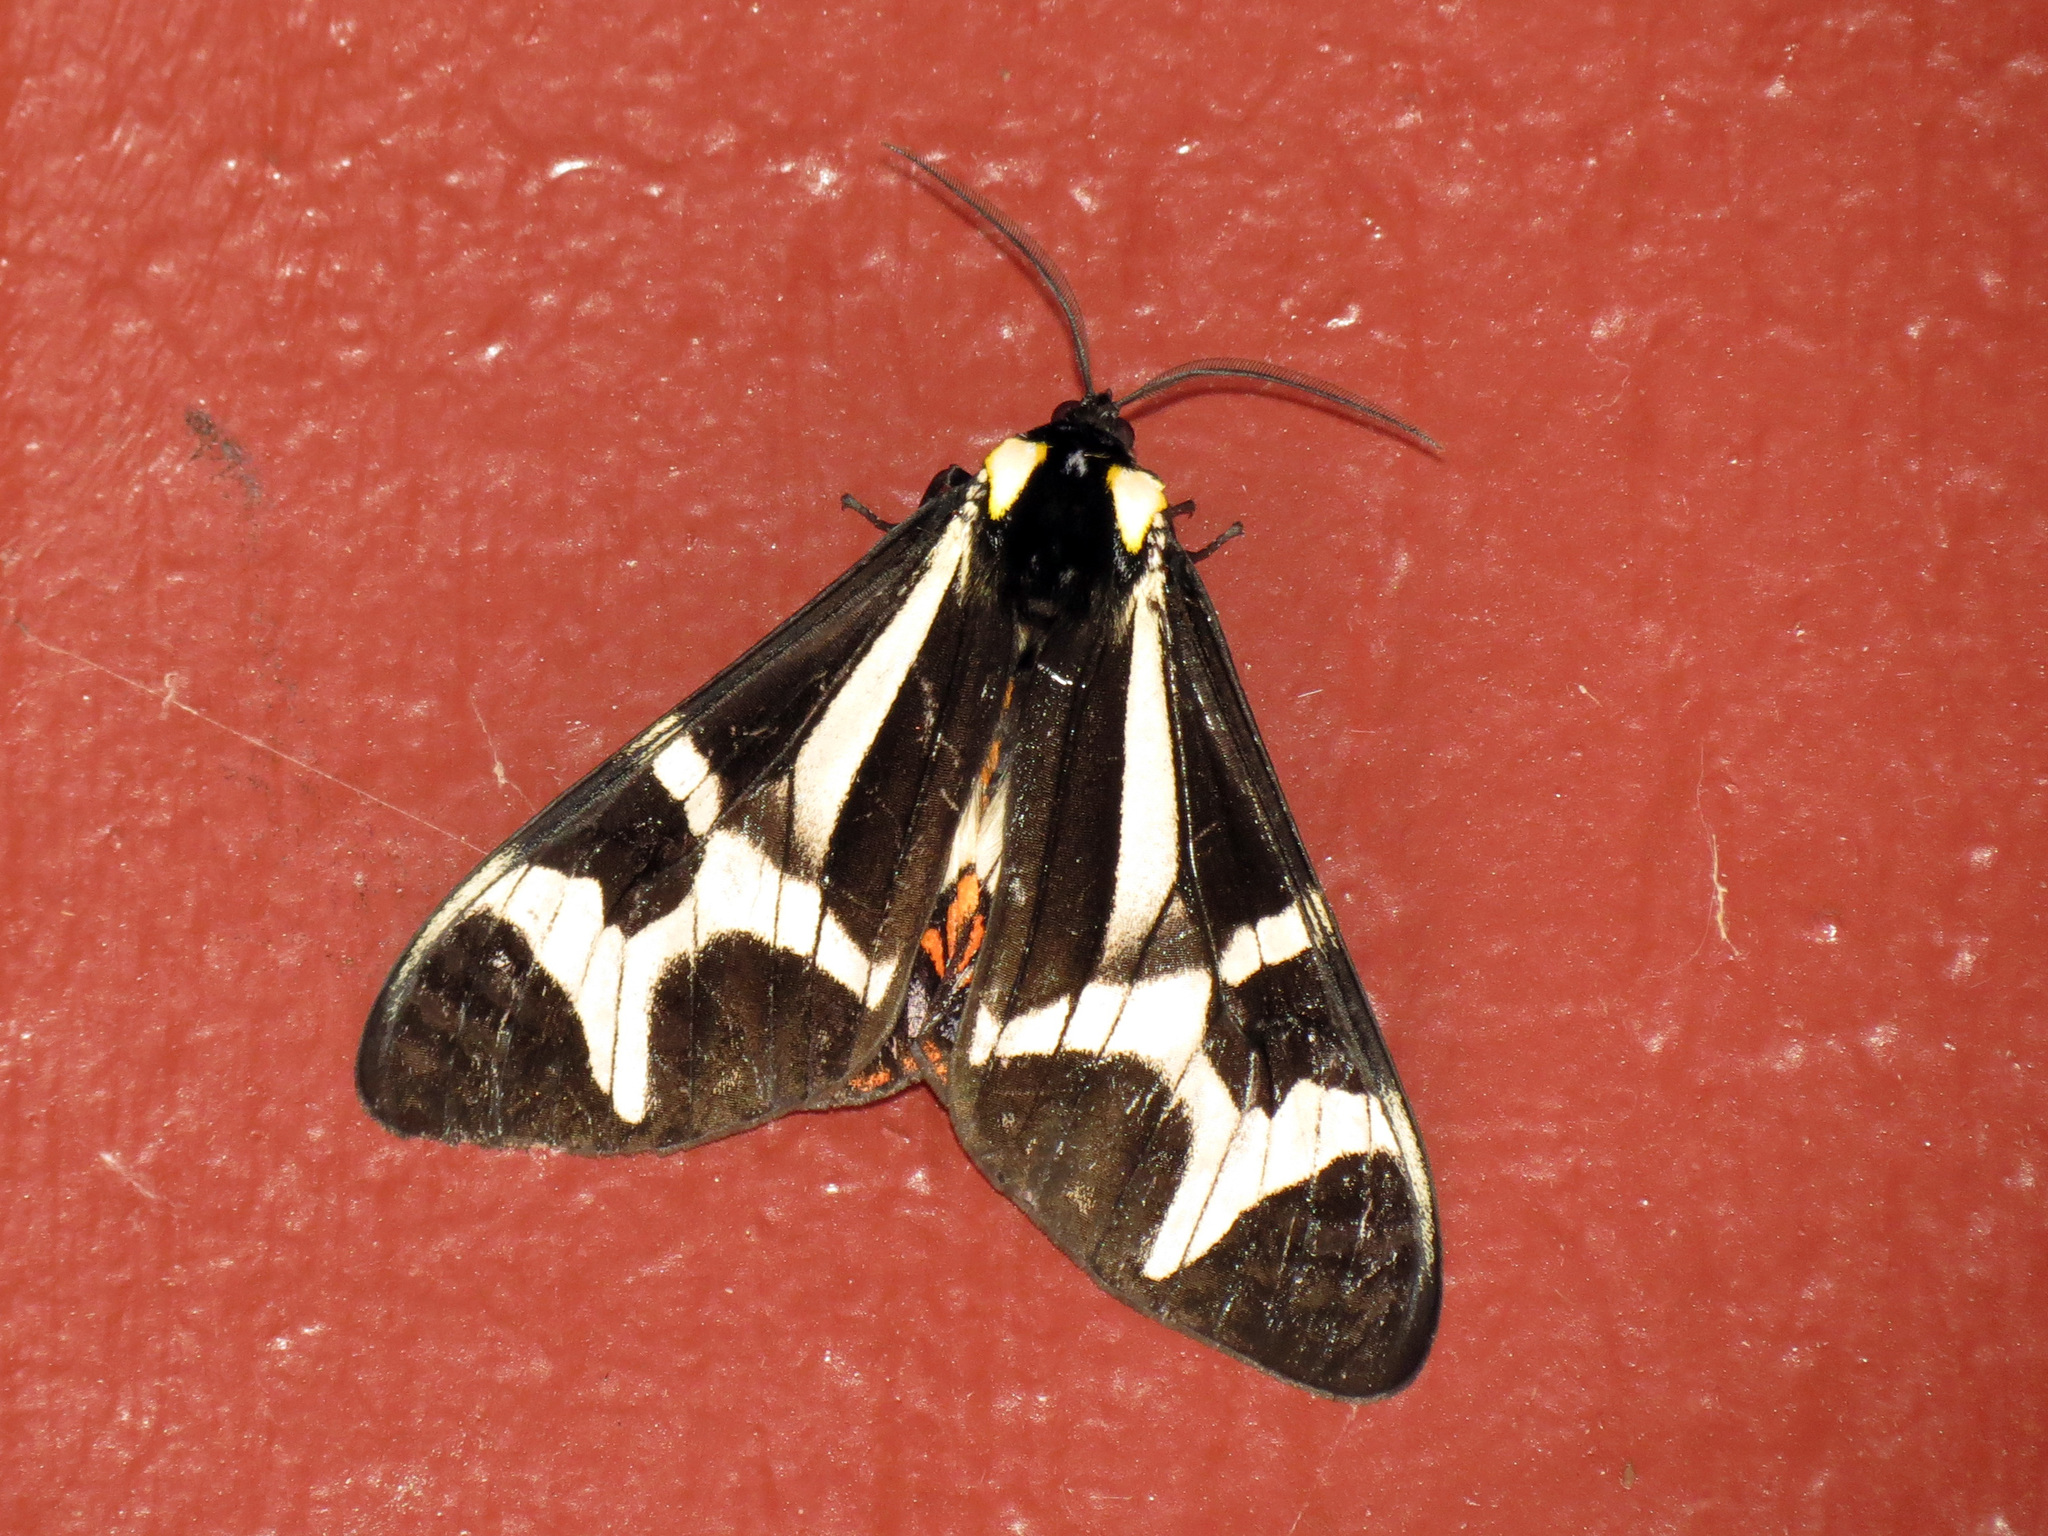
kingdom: Animalia
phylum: Arthropoda
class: Insecta
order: Lepidoptera
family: Erebidae
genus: Dysschema
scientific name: Dysschema howardi
